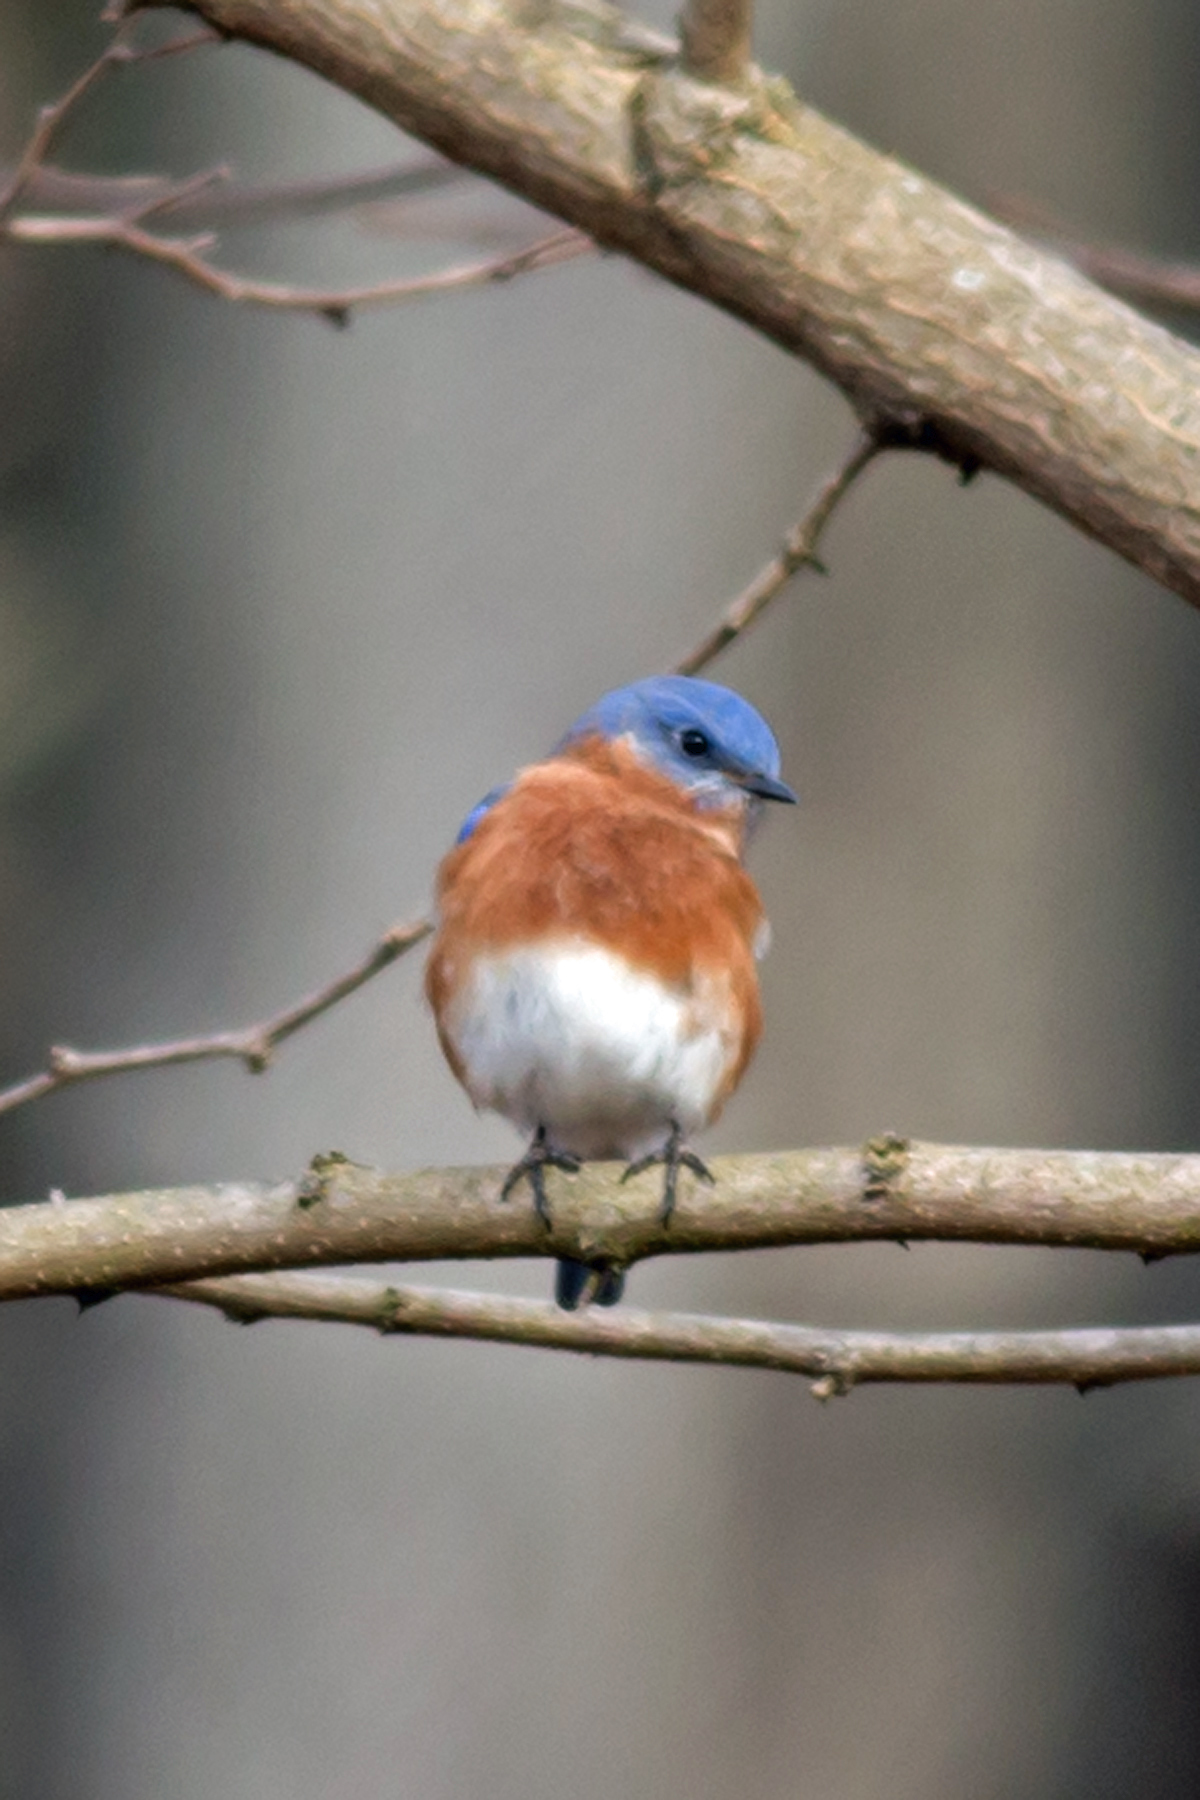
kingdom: Animalia
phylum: Chordata
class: Aves
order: Passeriformes
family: Turdidae
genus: Sialia
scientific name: Sialia sialis
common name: Eastern bluebird
